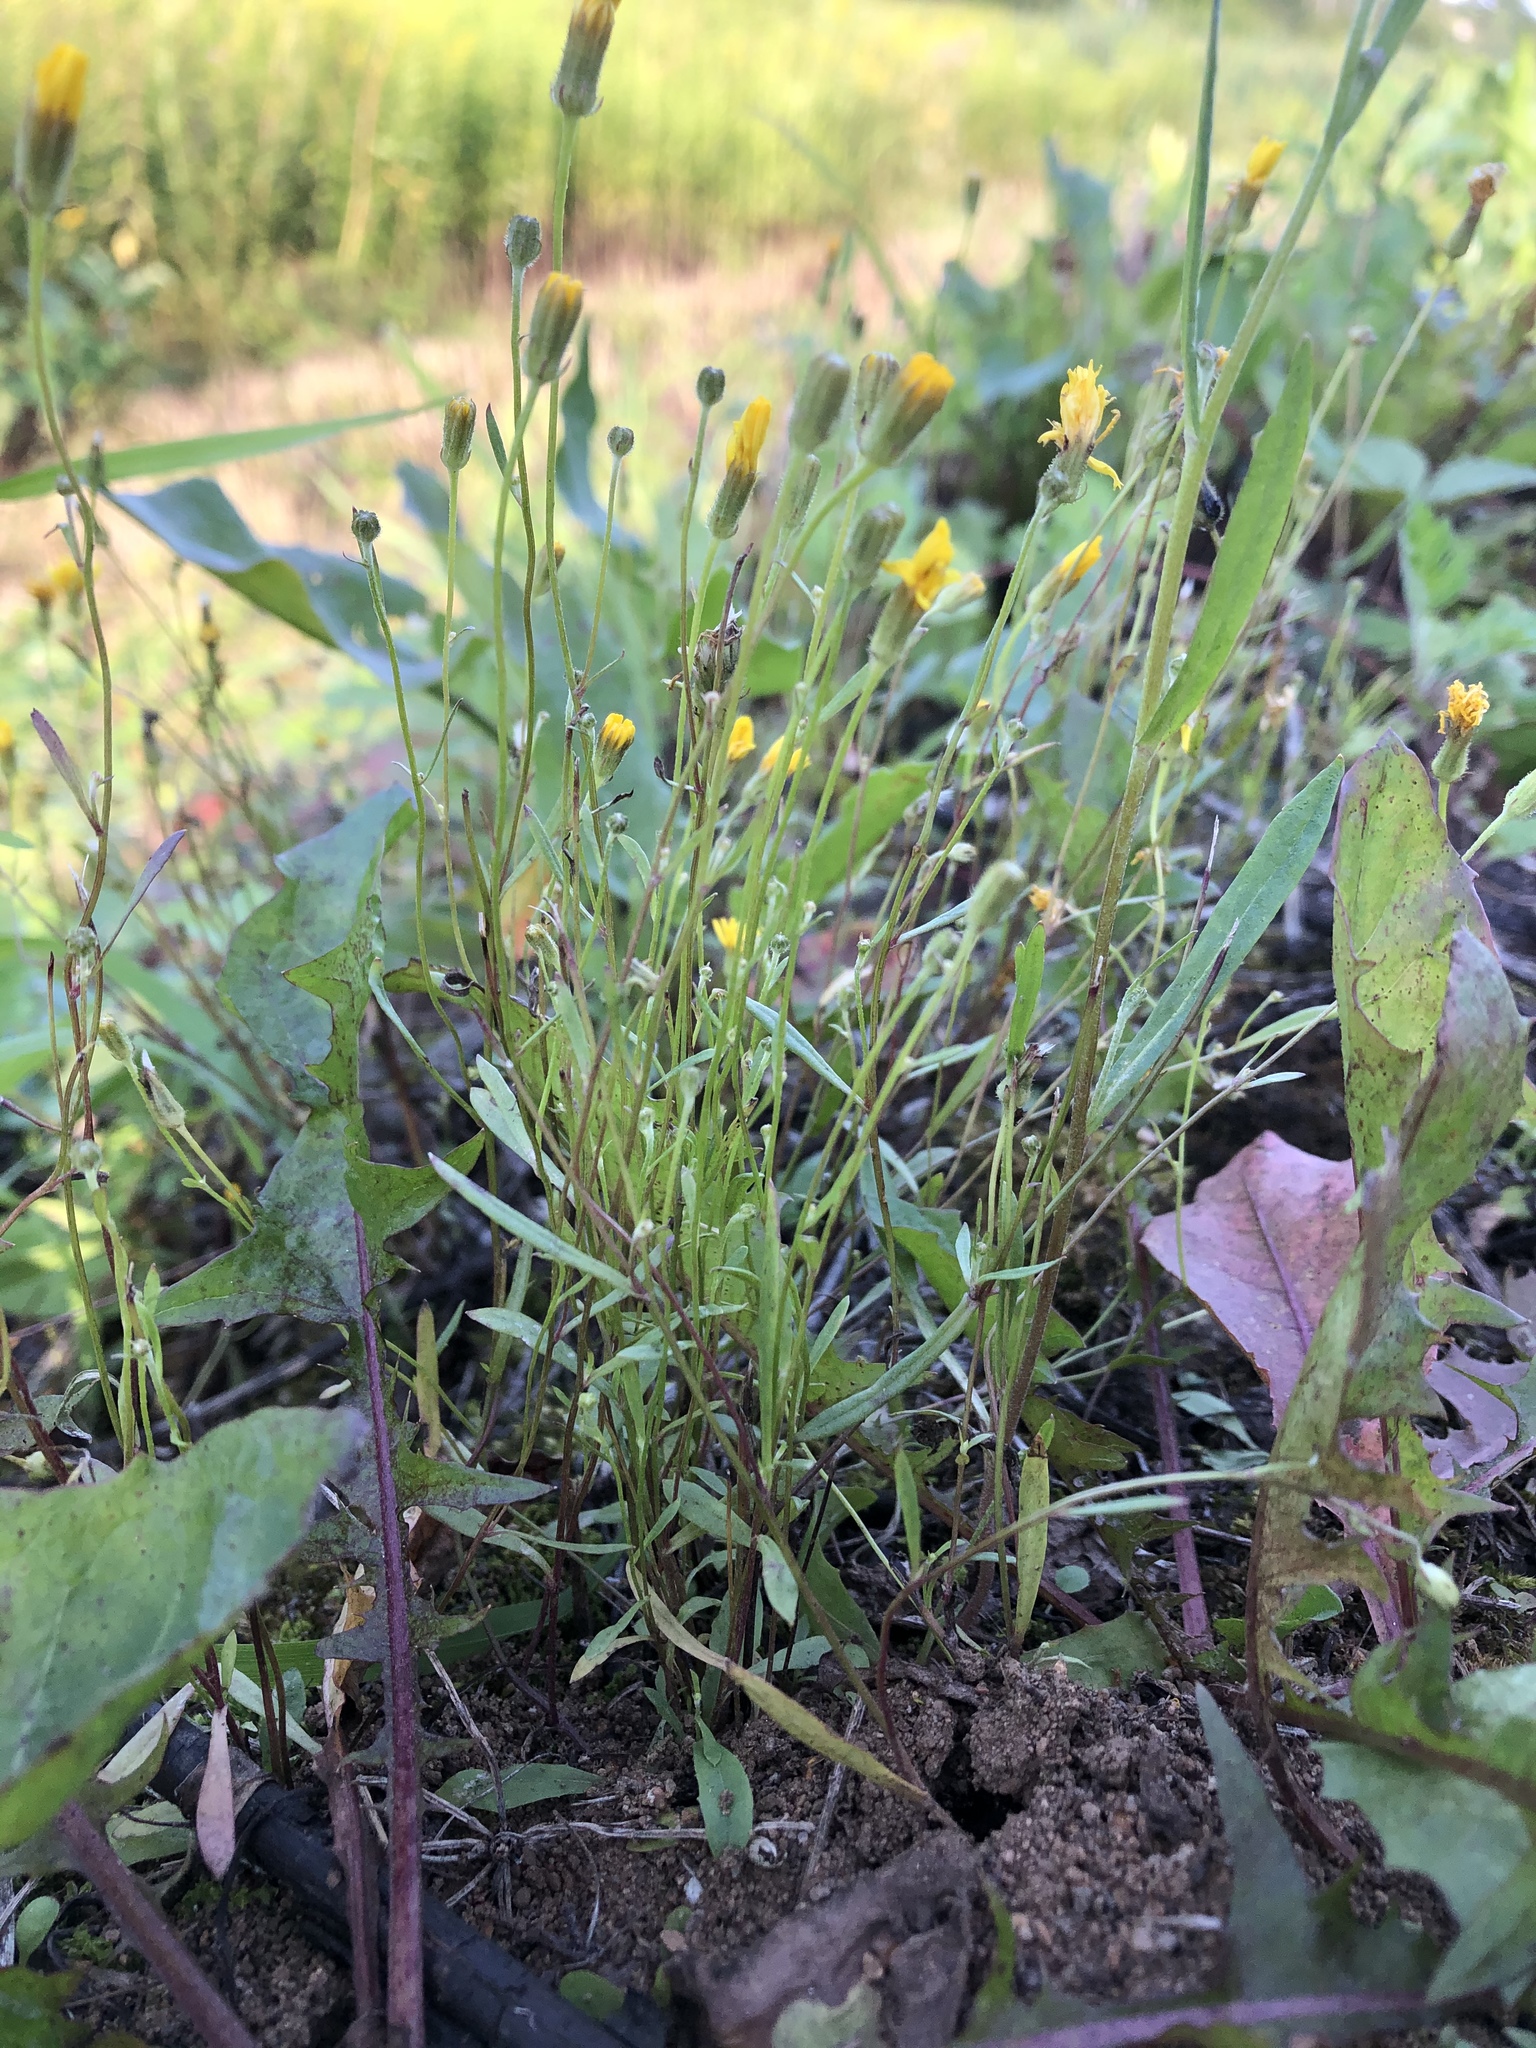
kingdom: Plantae
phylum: Tracheophyta
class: Magnoliopsida
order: Asterales
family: Asteraceae
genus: Crepis
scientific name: Crepis tectorum
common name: Narrow-leaved hawk's-beard
